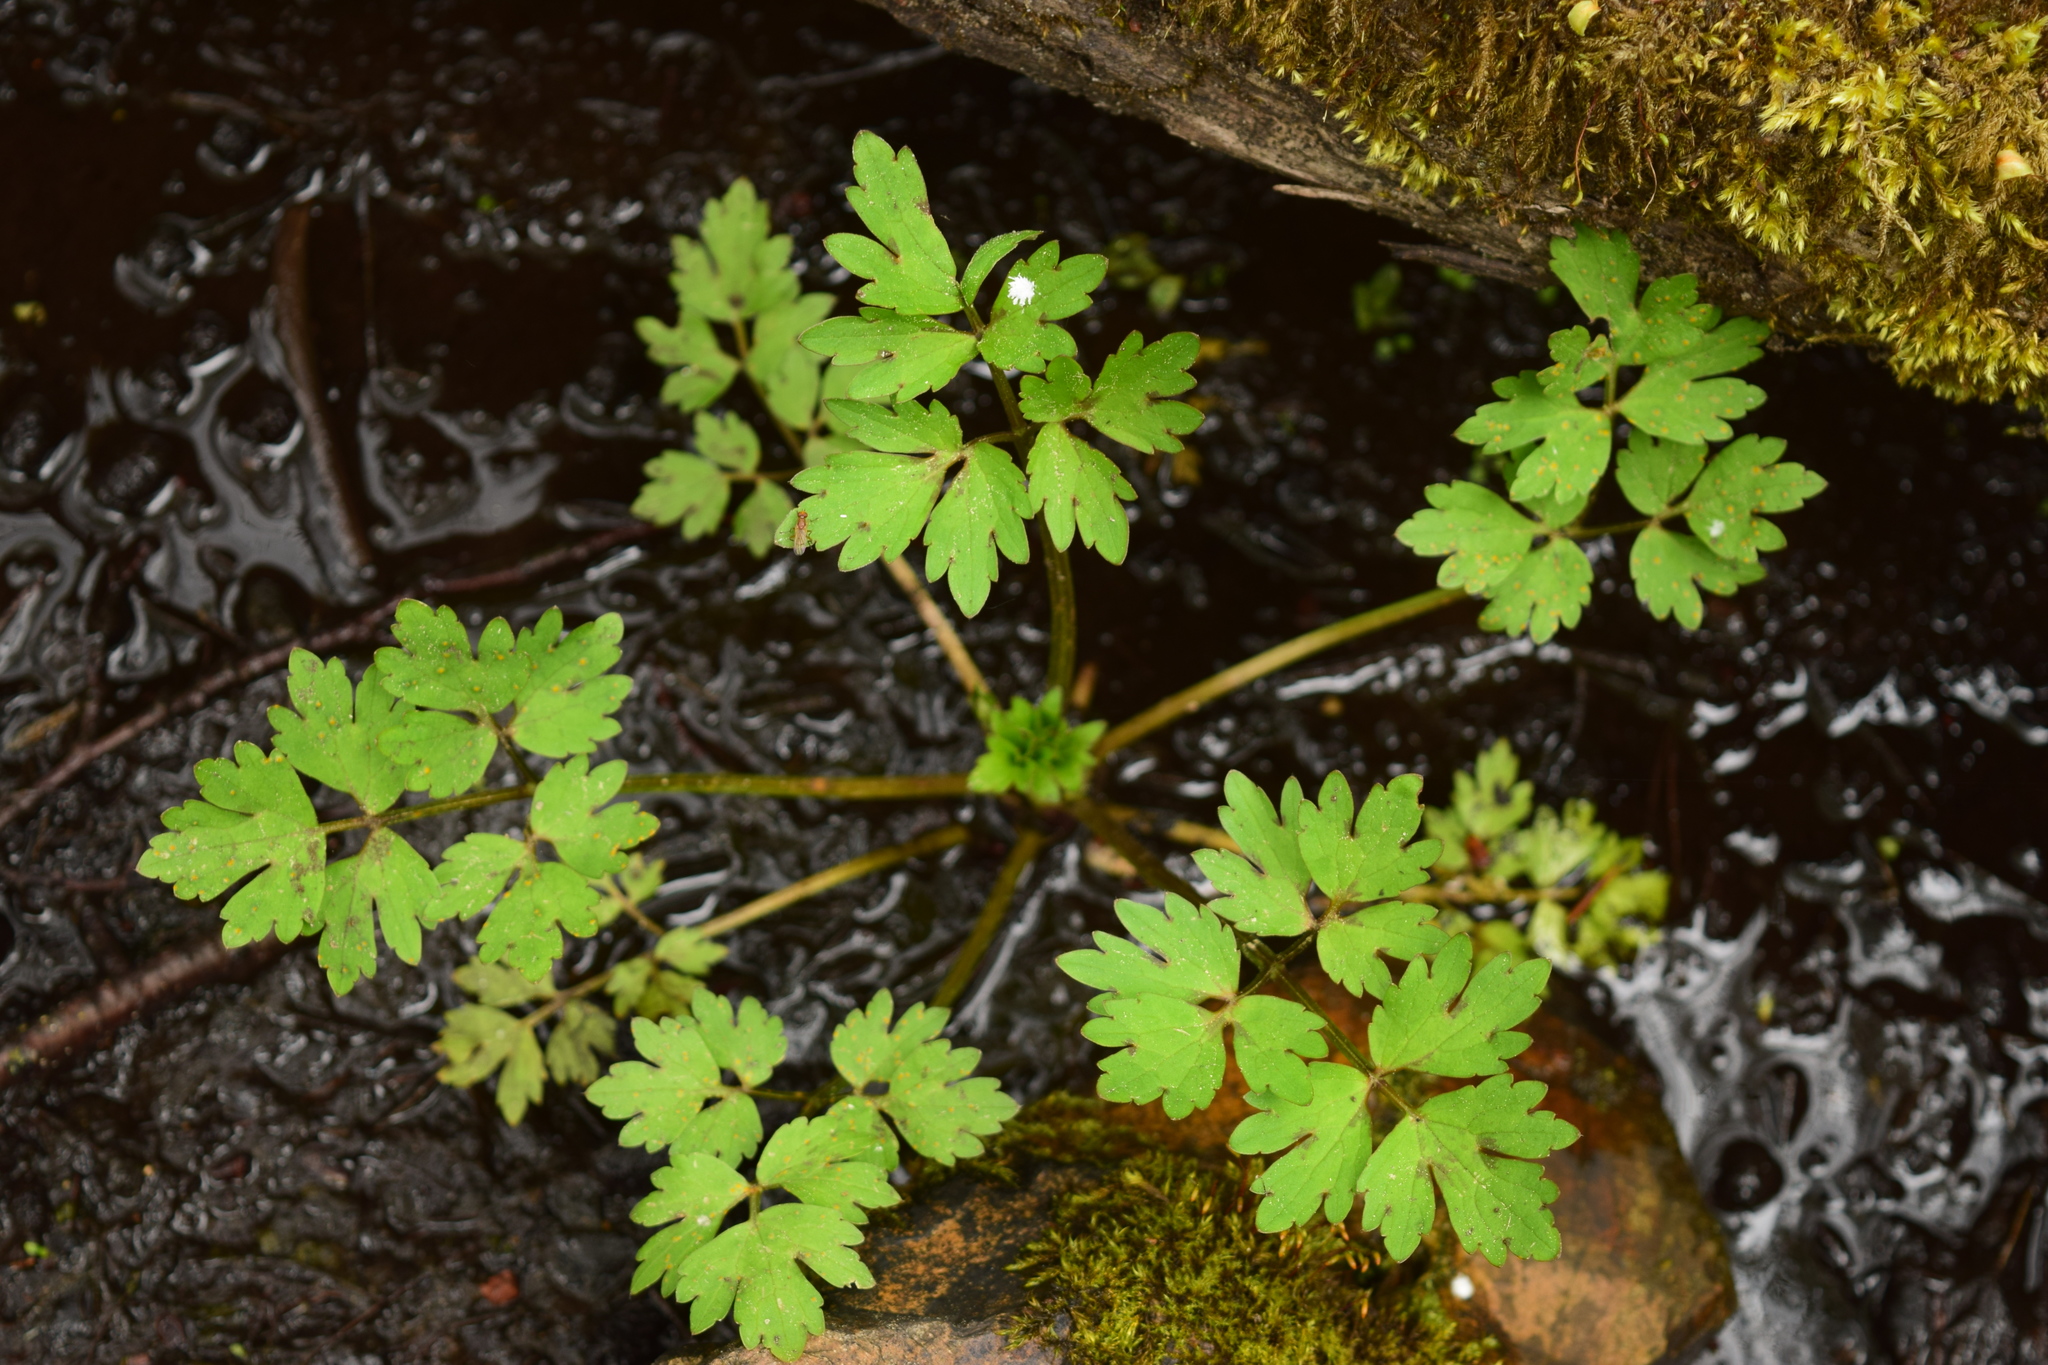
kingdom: Plantae
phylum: Tracheophyta
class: Magnoliopsida
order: Ranunculales
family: Ranunculaceae
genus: Ranunculus
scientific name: Ranunculus repens
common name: Creeping buttercup
